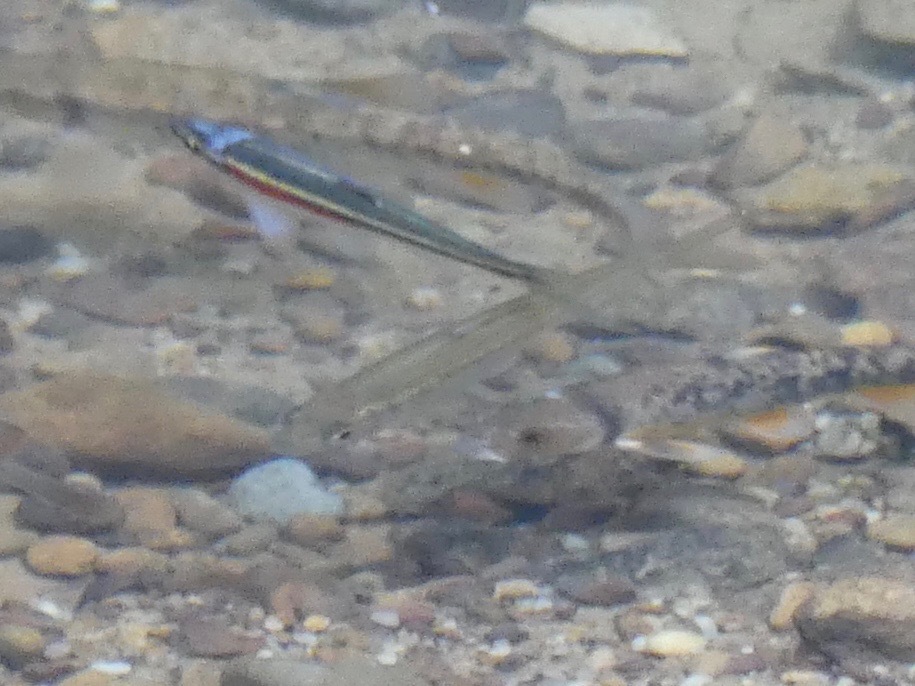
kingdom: Animalia
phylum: Chordata
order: Cypriniformes
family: Cyprinidae
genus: Luxilus
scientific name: Luxilus chrysocephalus
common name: Striped shiner
